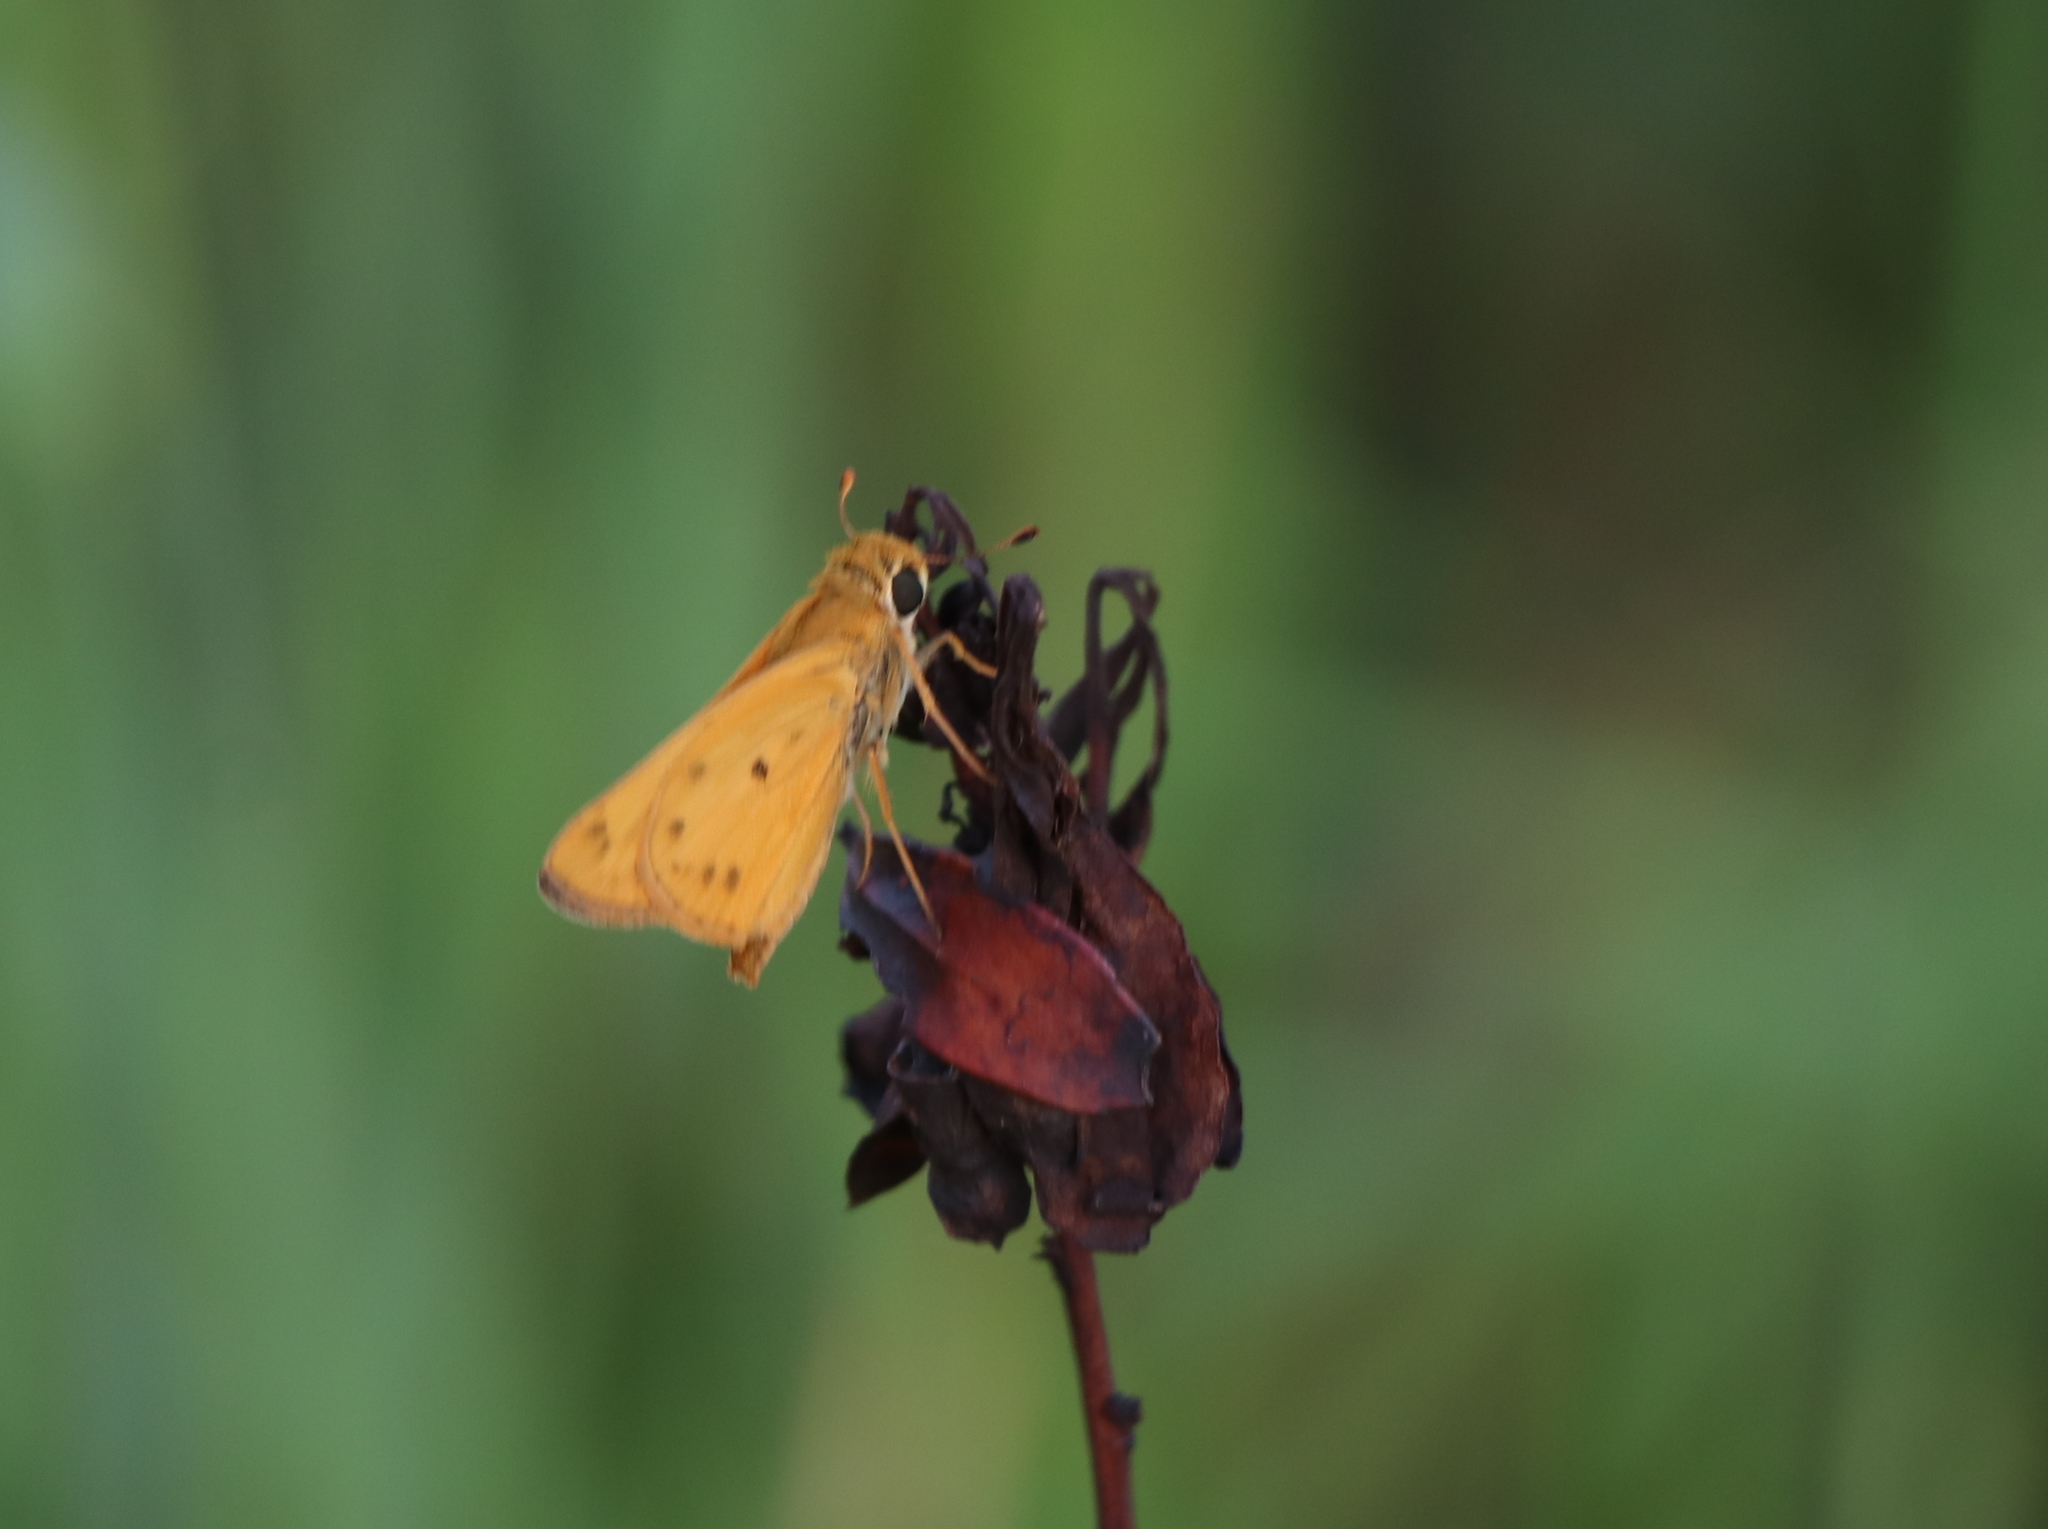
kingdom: Animalia
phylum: Arthropoda
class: Insecta
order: Lepidoptera
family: Hesperiidae
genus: Hylephila
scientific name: Hylephila phyleus
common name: Fiery skipper
